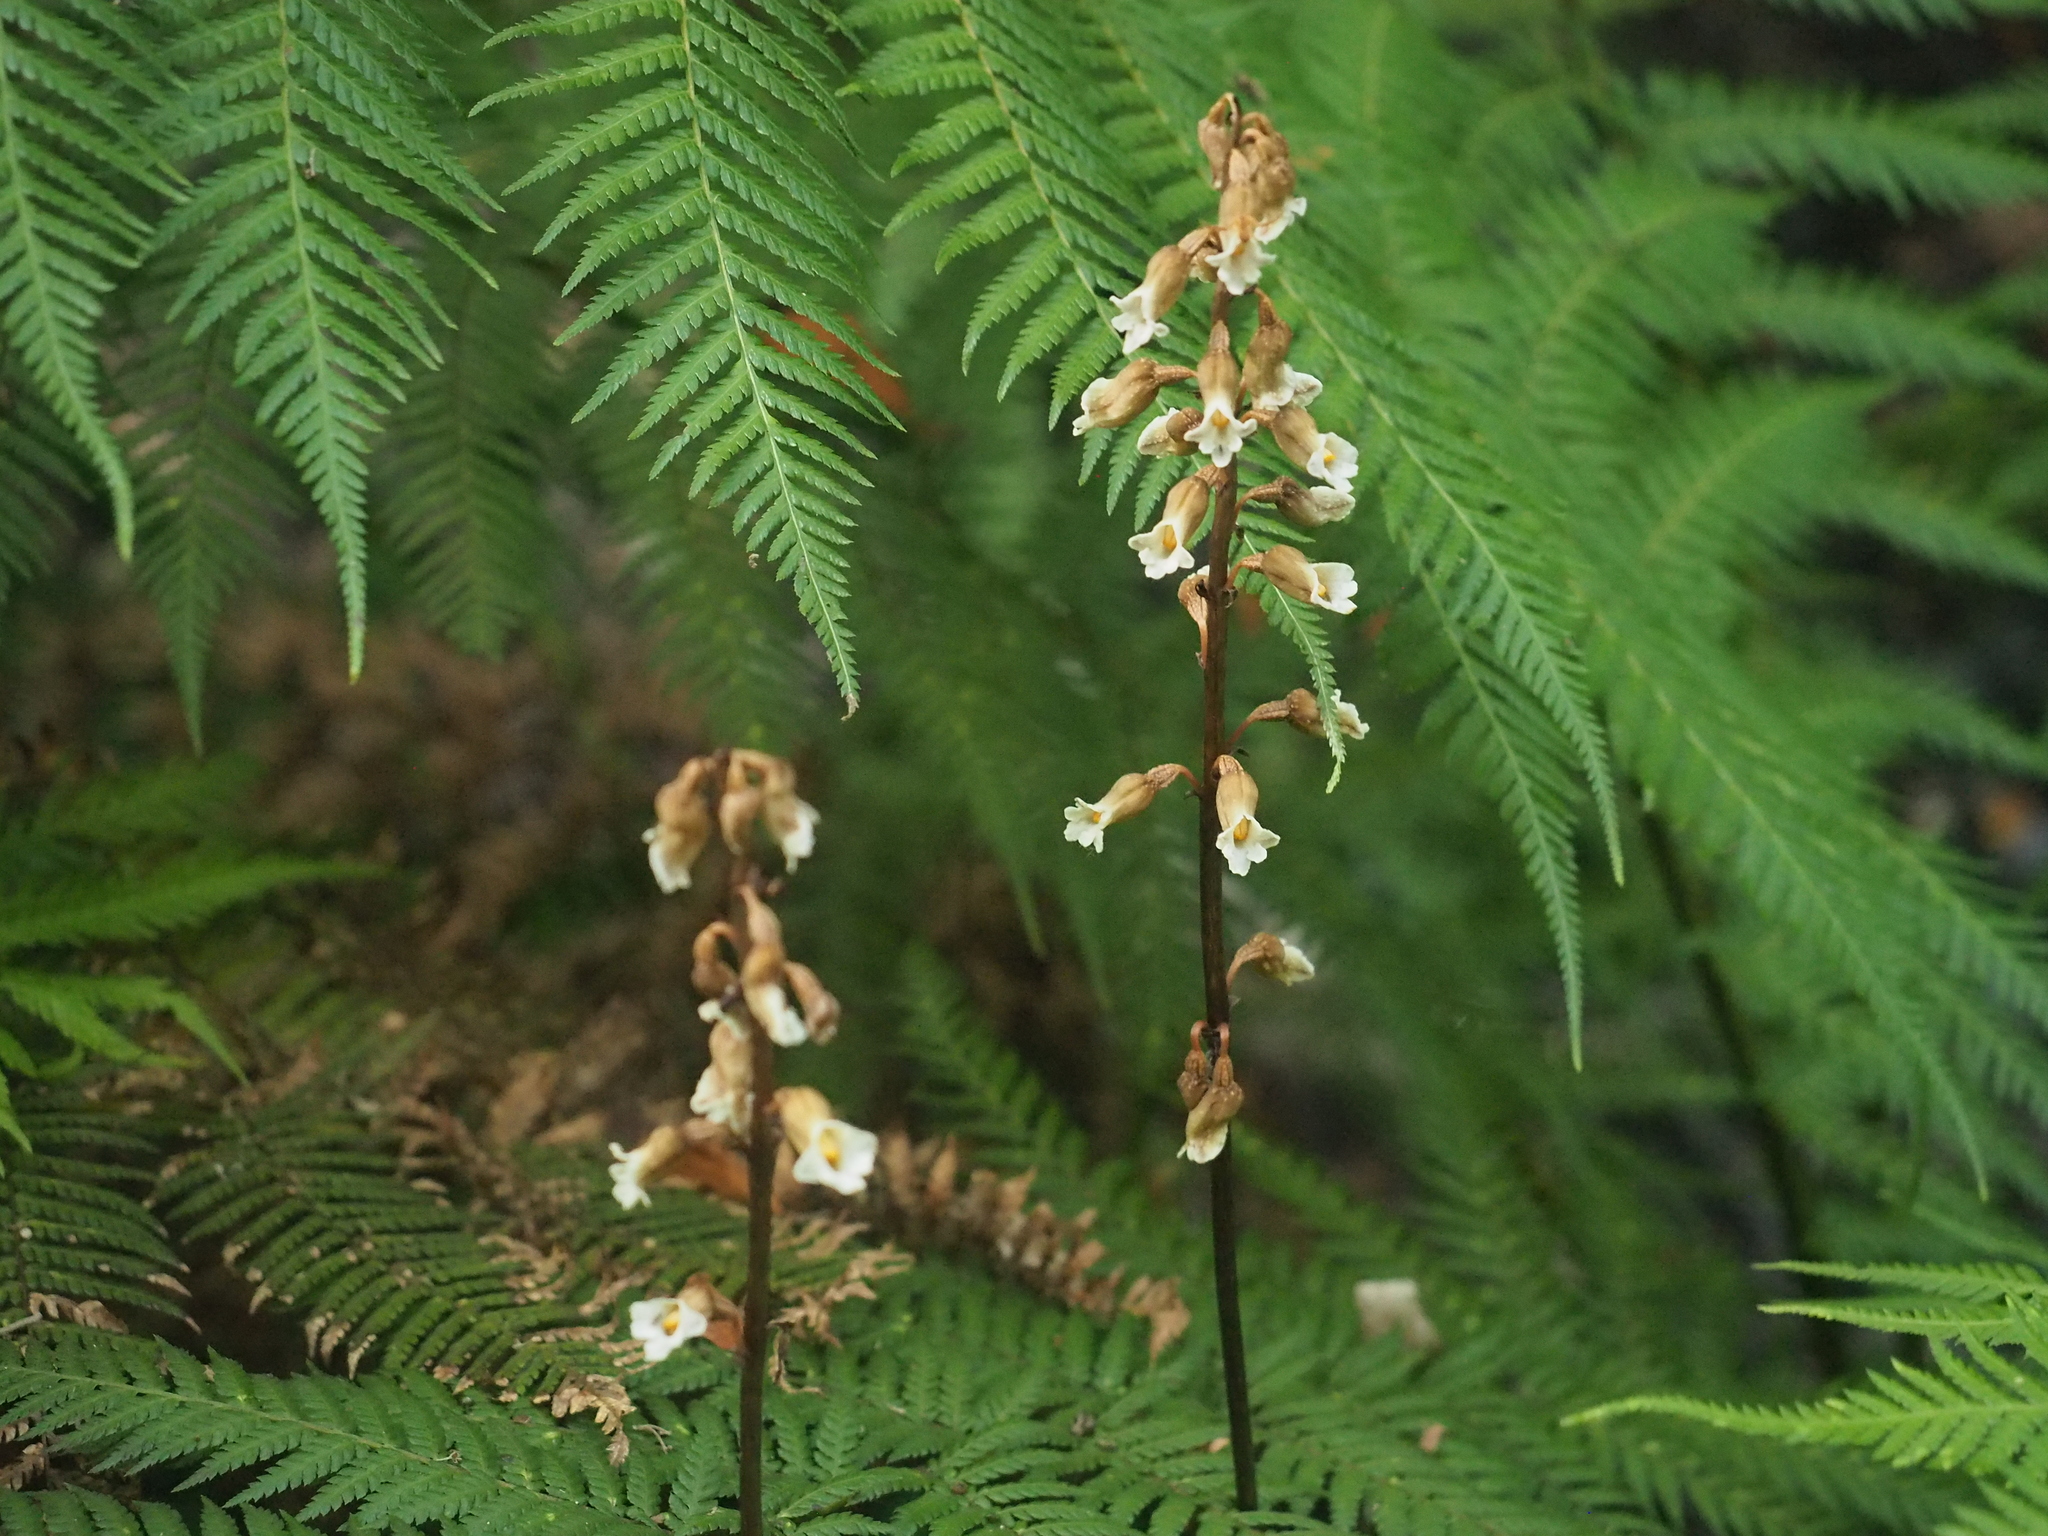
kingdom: Plantae
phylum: Tracheophyta
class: Liliopsida
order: Asparagales
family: Orchidaceae
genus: Gastrodia
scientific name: Gastrodia procera
